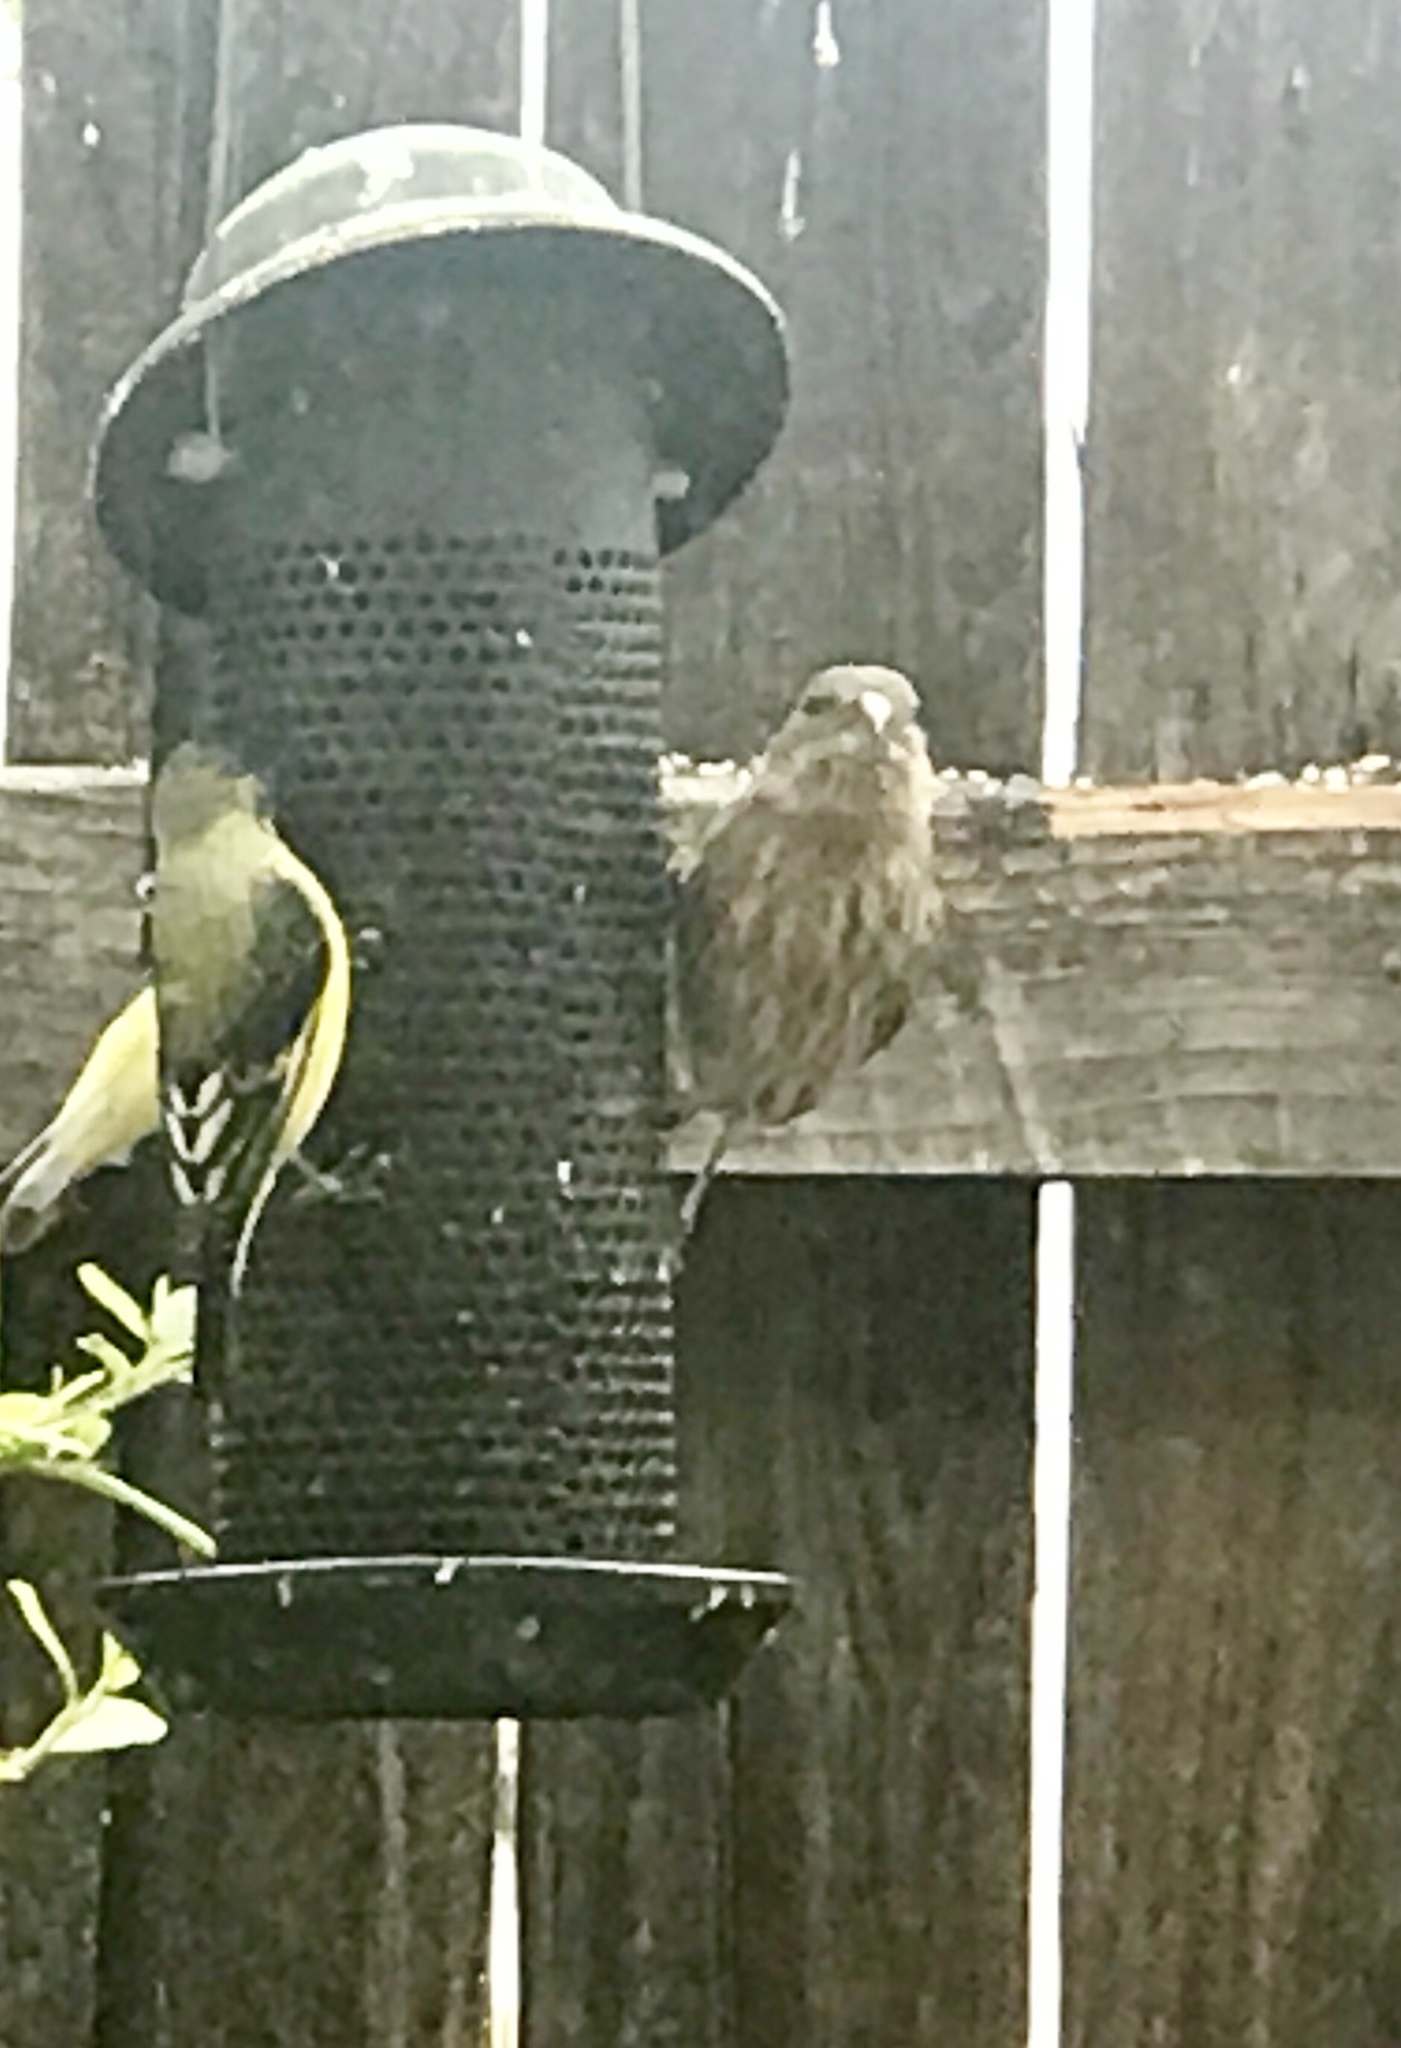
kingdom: Animalia
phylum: Chordata
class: Aves
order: Passeriformes
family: Fringillidae
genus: Haemorhous
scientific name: Haemorhous mexicanus
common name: House finch
